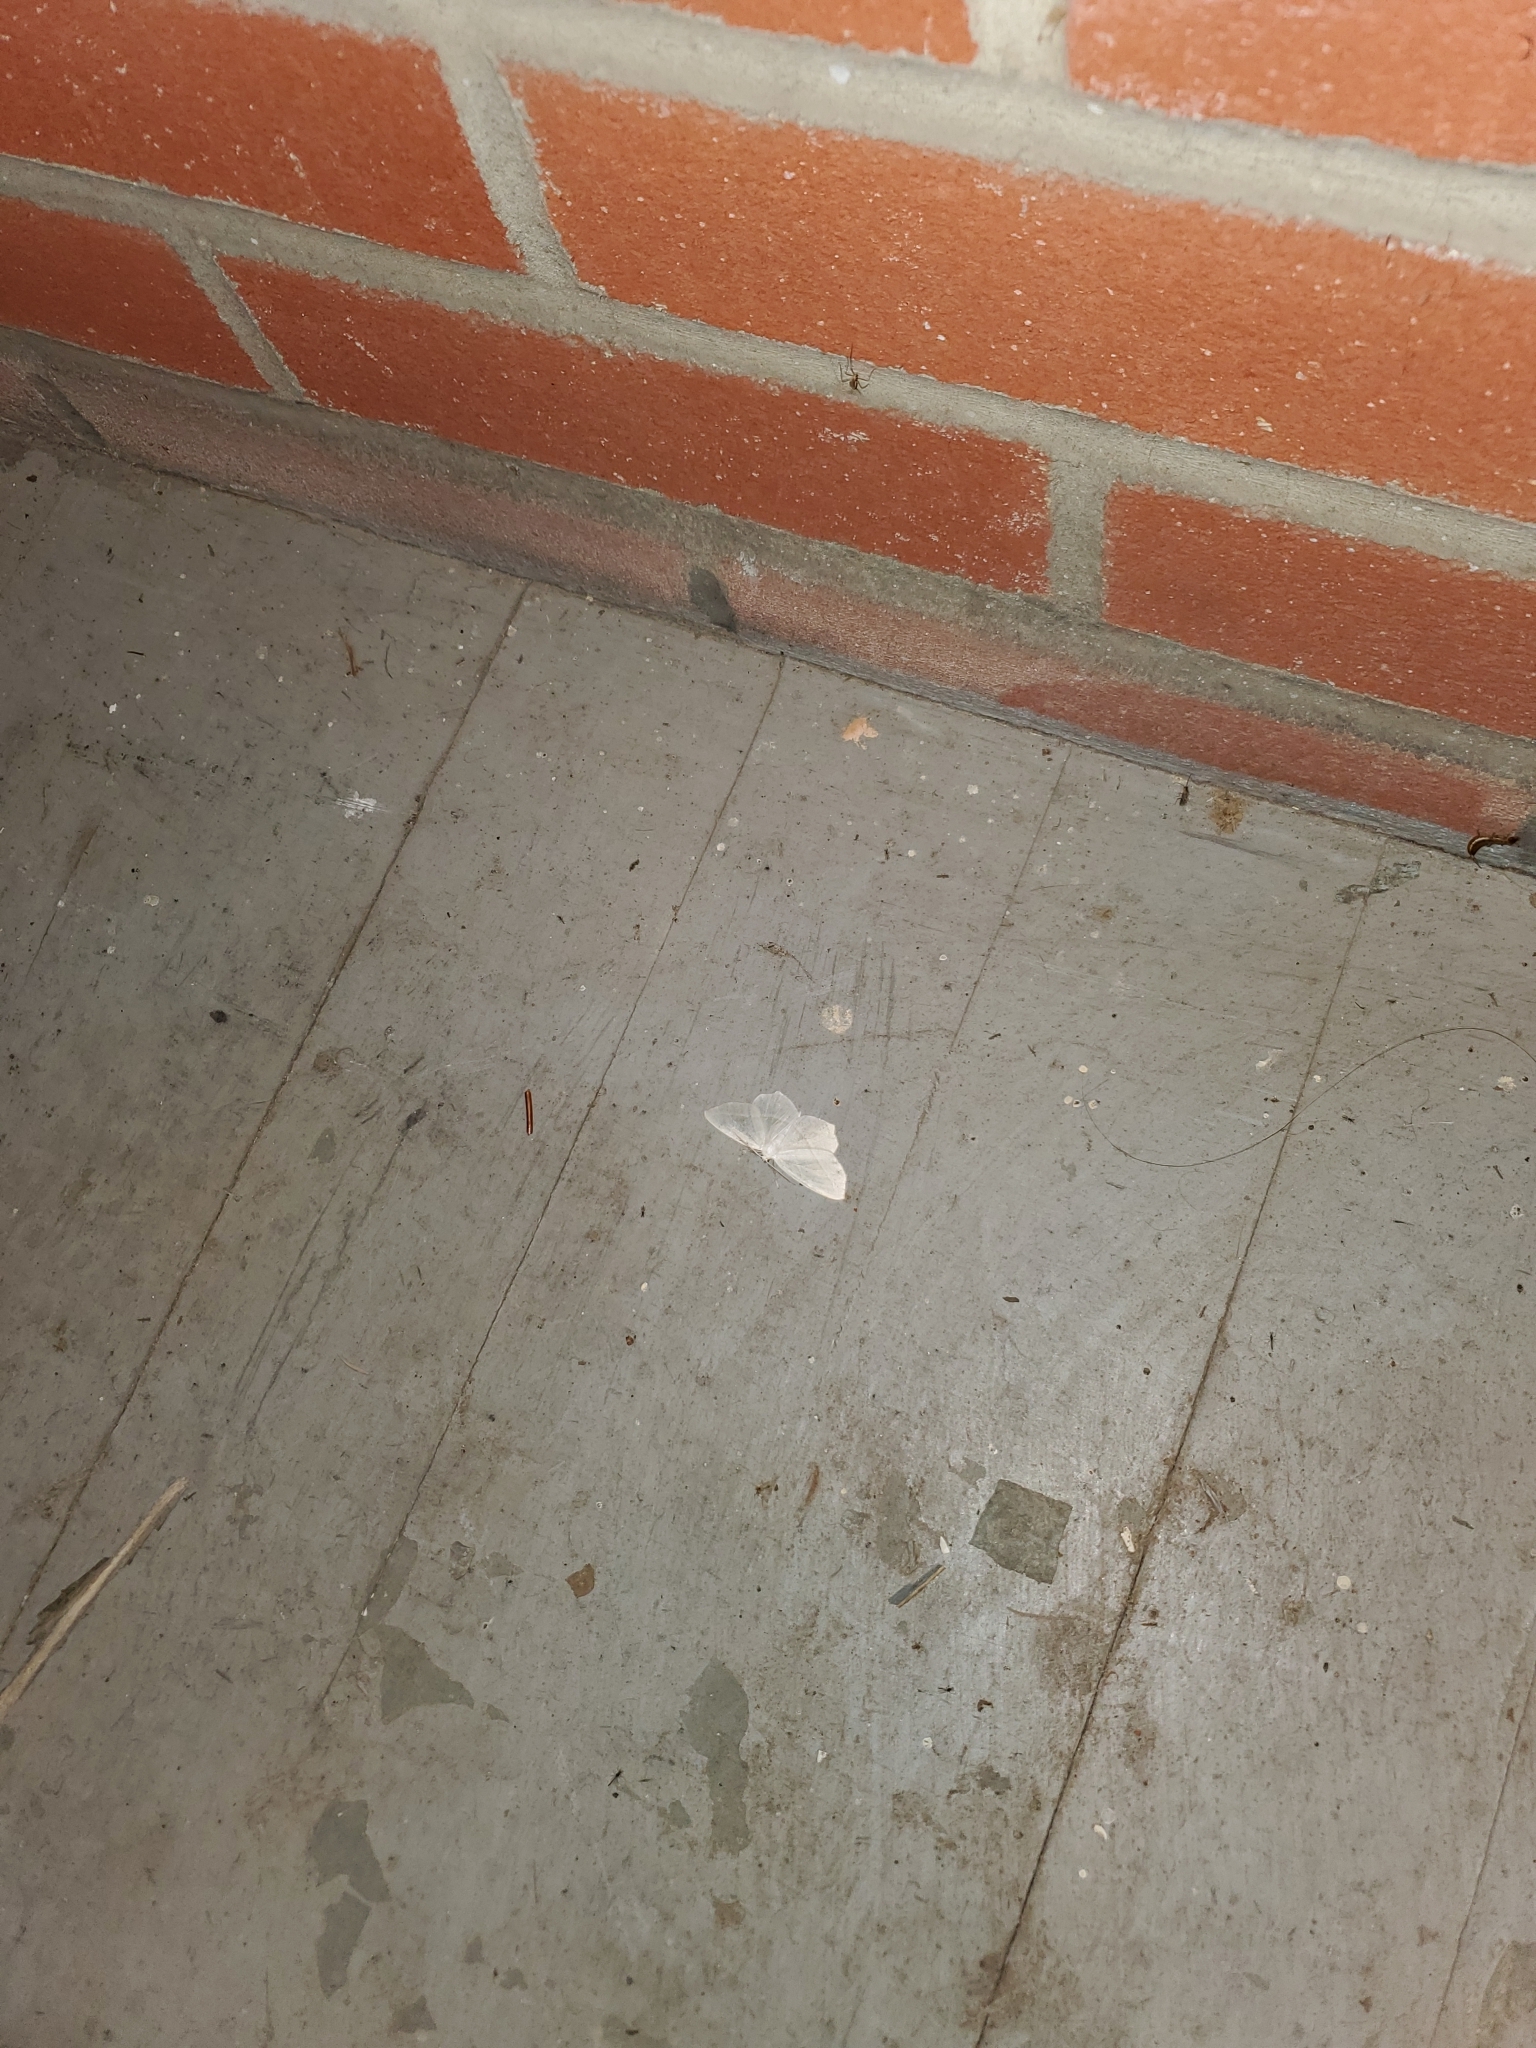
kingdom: Animalia
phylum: Arthropoda
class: Insecta
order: Lepidoptera
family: Geometridae
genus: Campaea
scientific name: Campaea perlata
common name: Fringed looper
